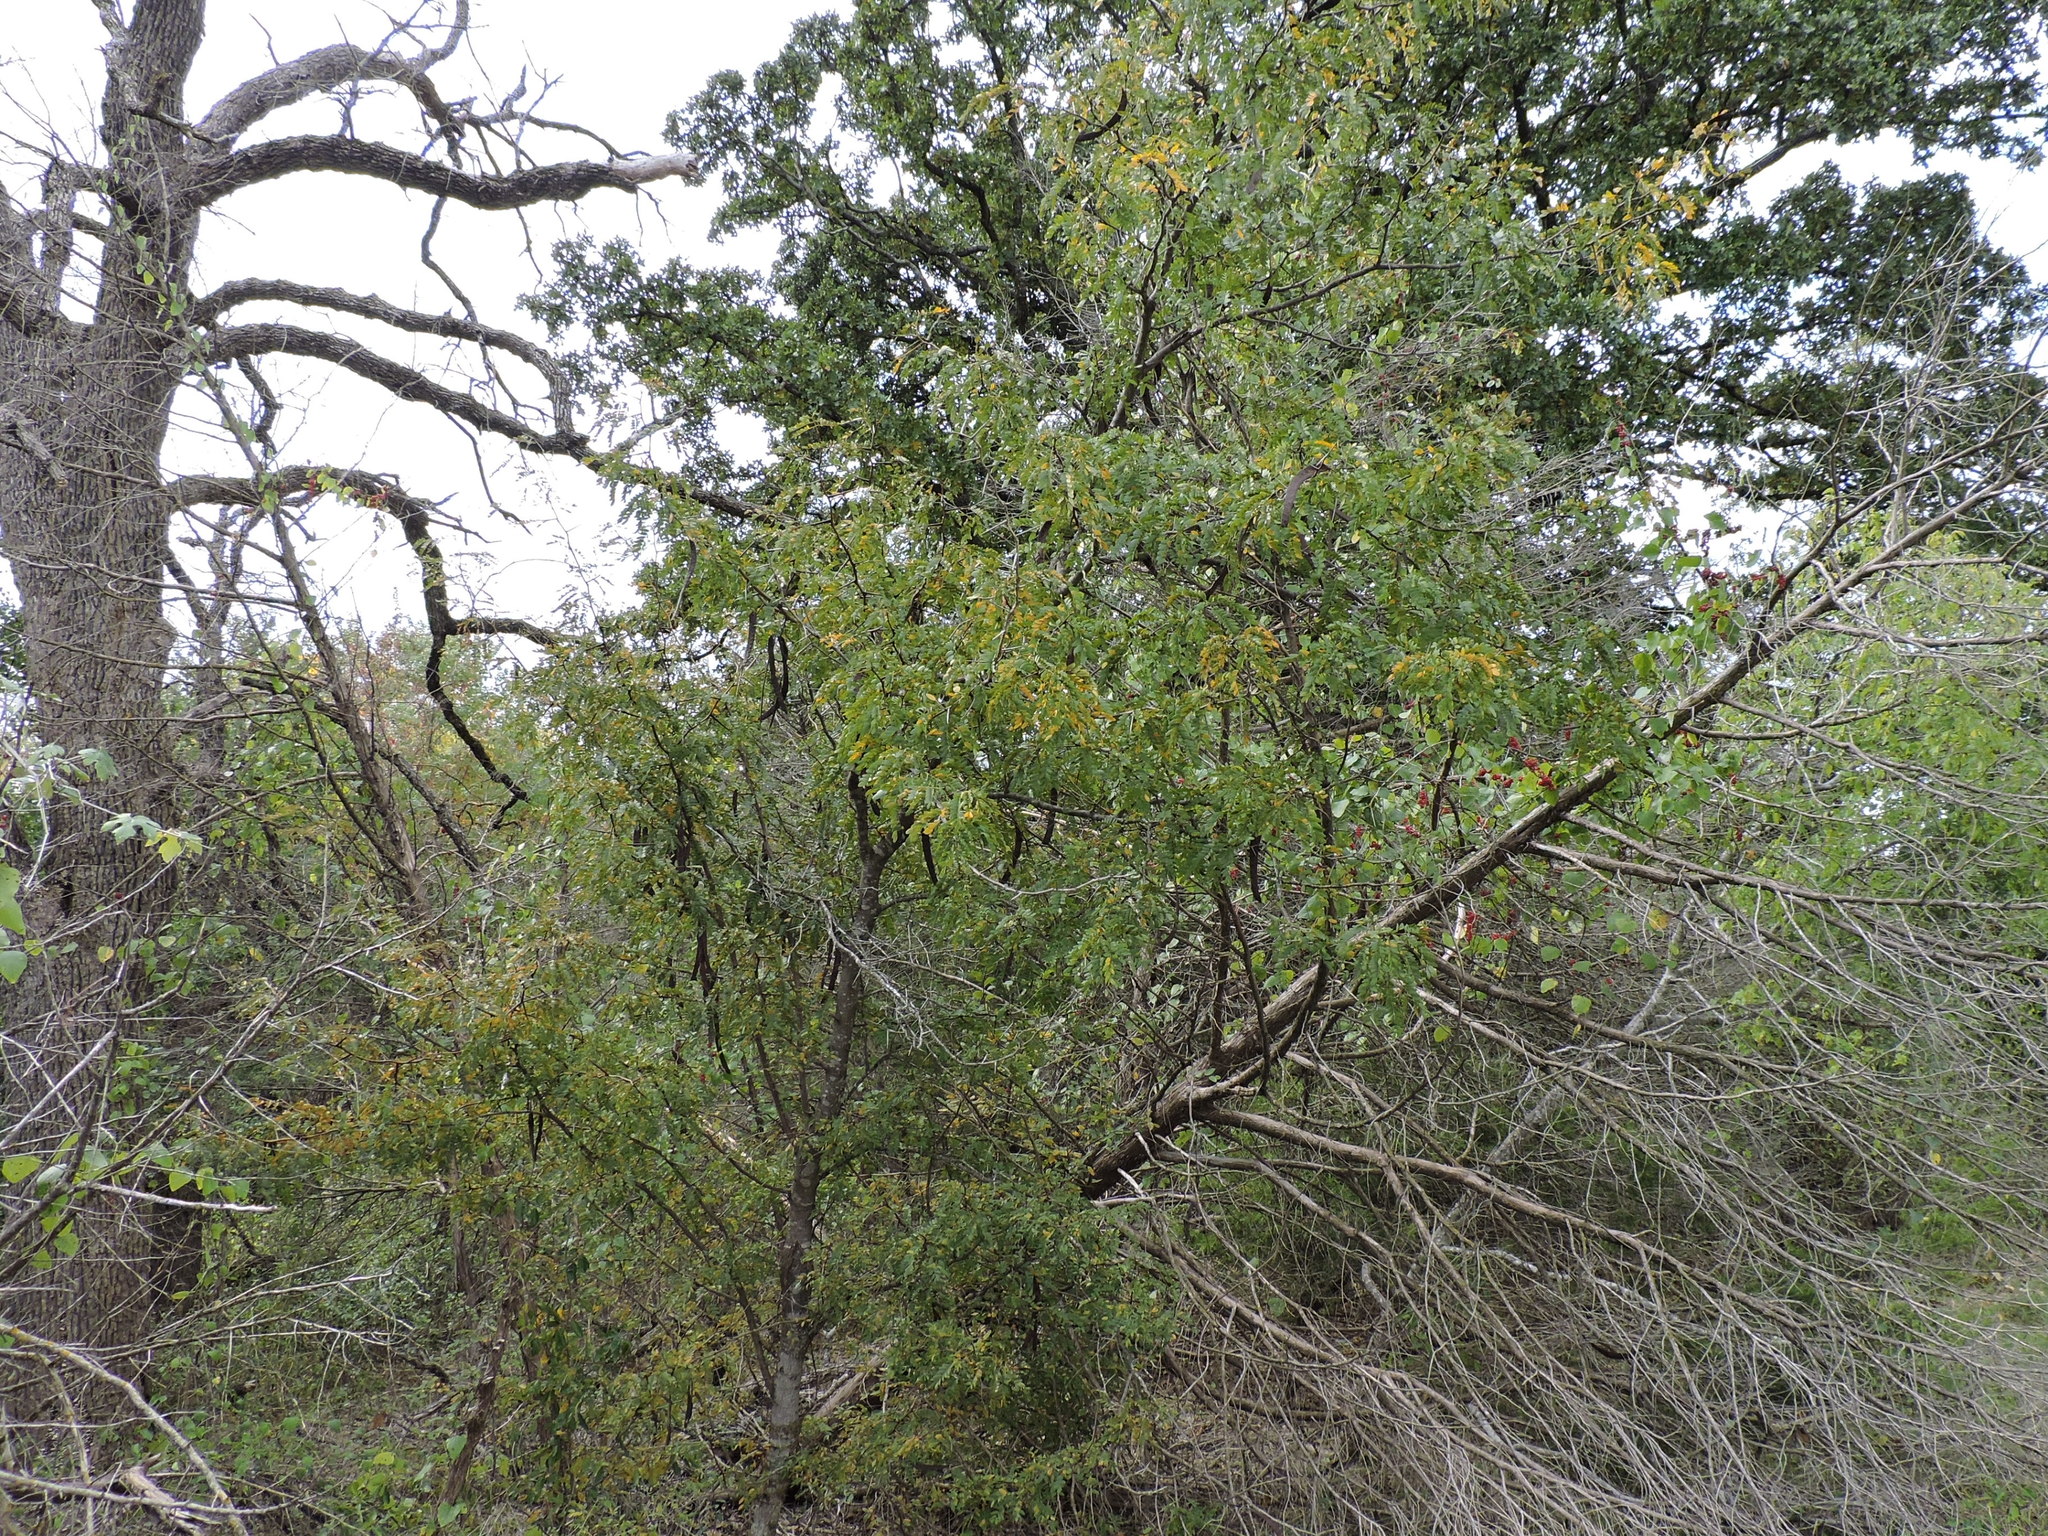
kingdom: Plantae
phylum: Tracheophyta
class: Magnoliopsida
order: Fabales
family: Fabaceae
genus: Gleditsia
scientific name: Gleditsia triacanthos
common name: Common honeylocust
